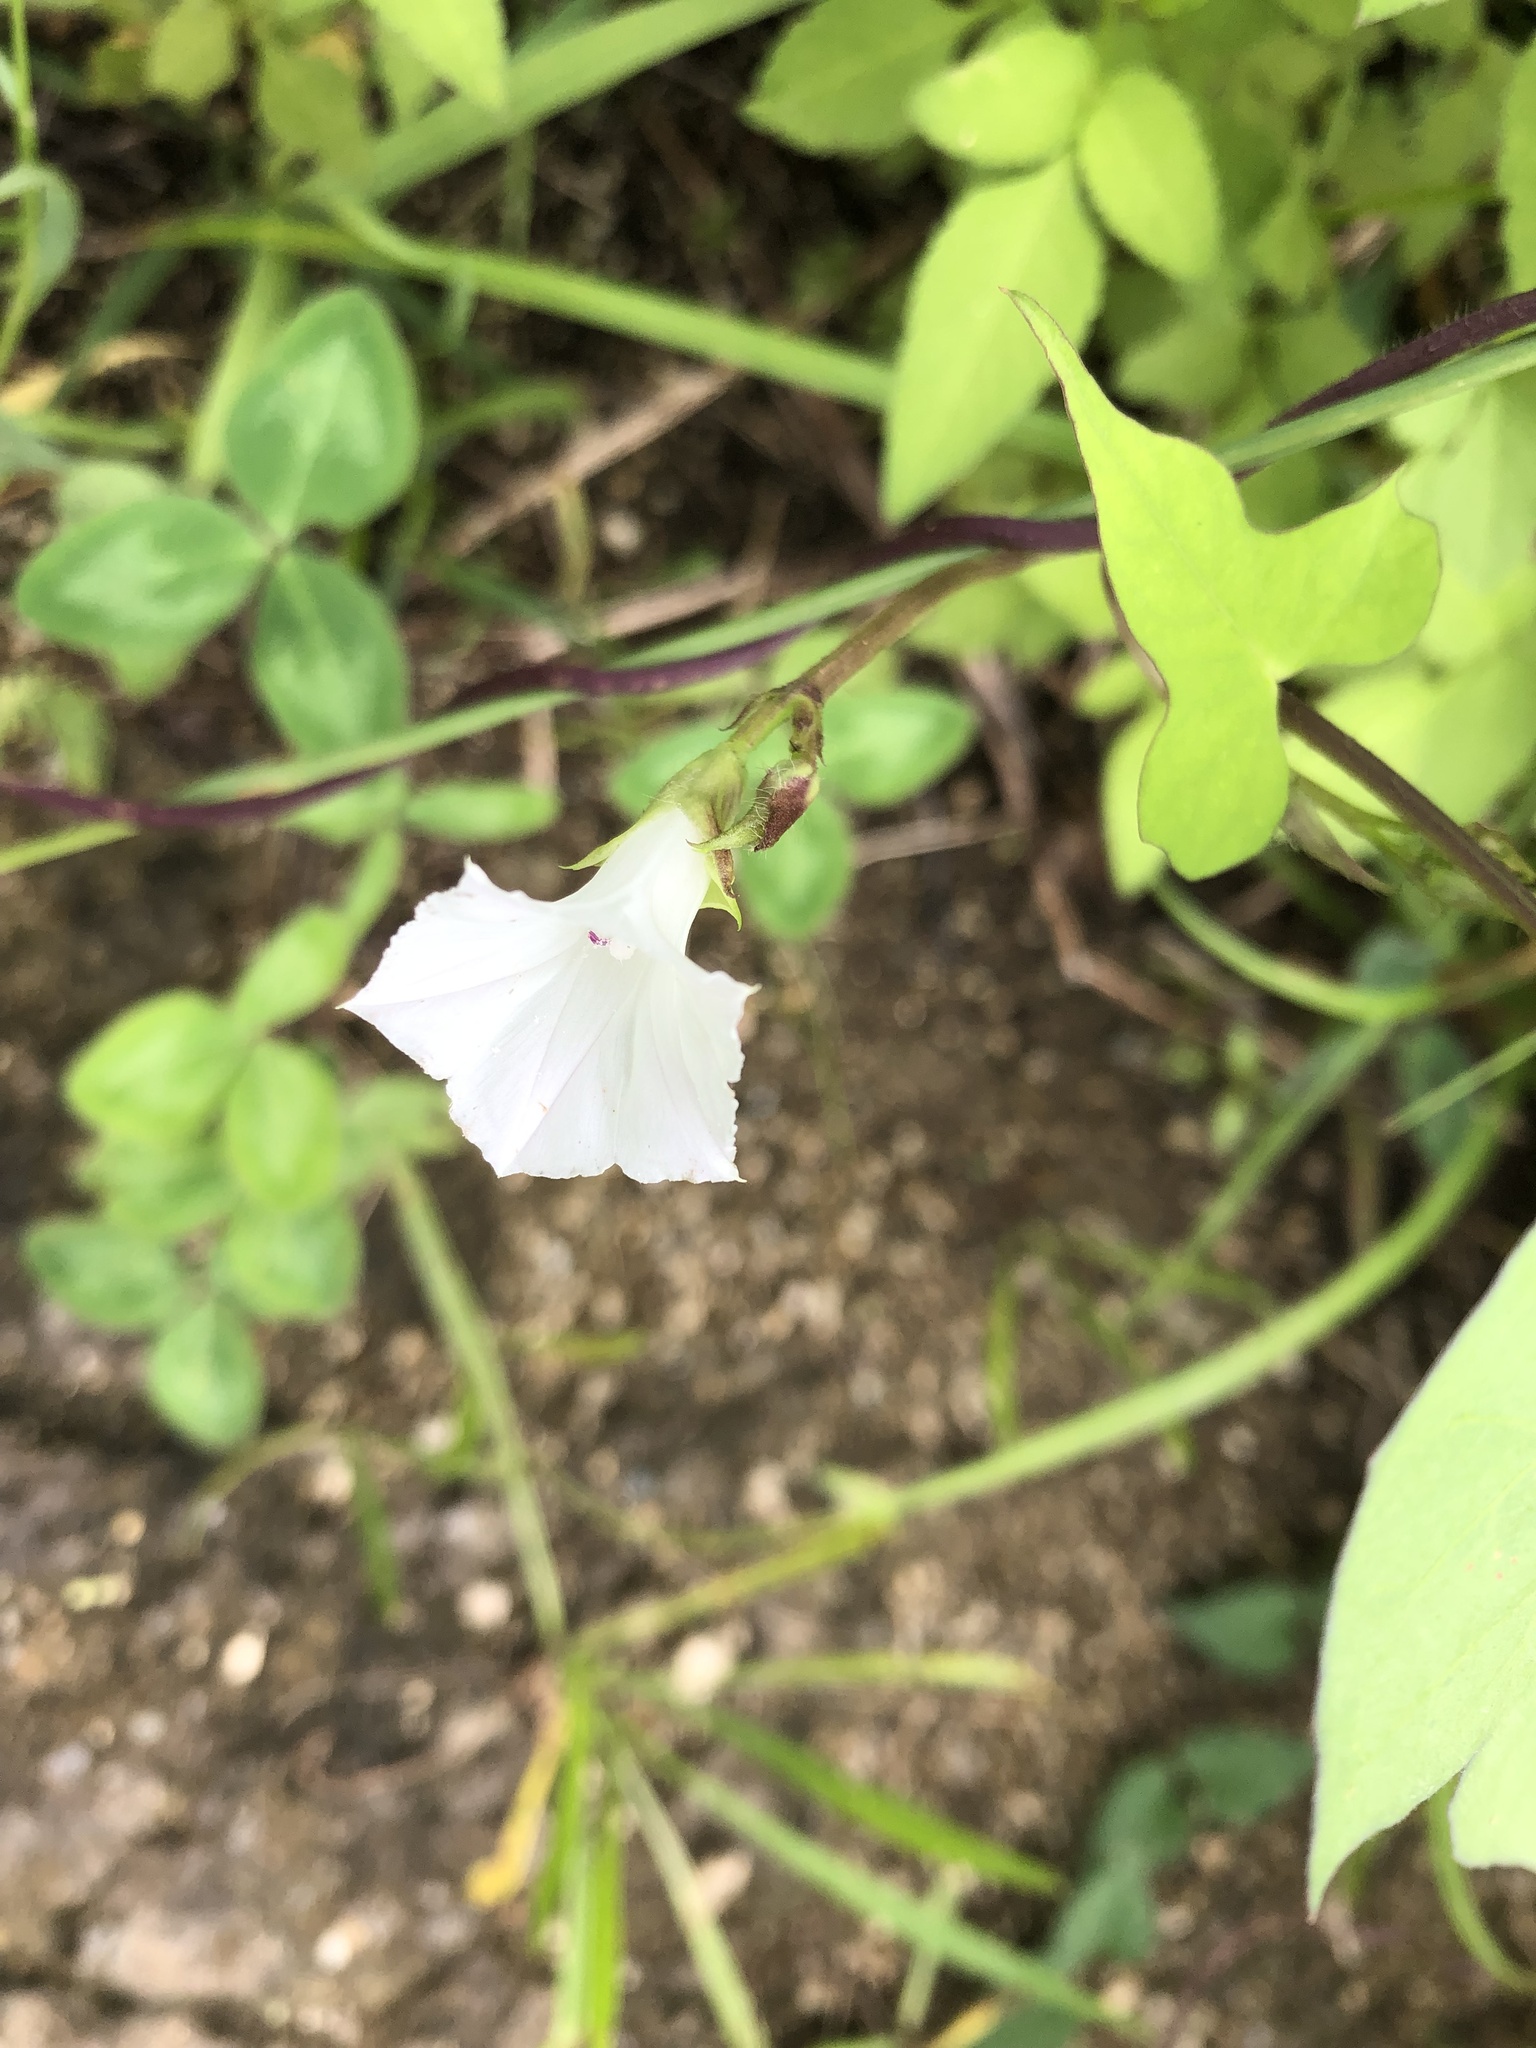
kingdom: Plantae
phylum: Tracheophyta
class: Magnoliopsida
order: Solanales
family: Convolvulaceae
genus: Ipomoea
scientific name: Ipomoea lacunosa
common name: White morning-glory
